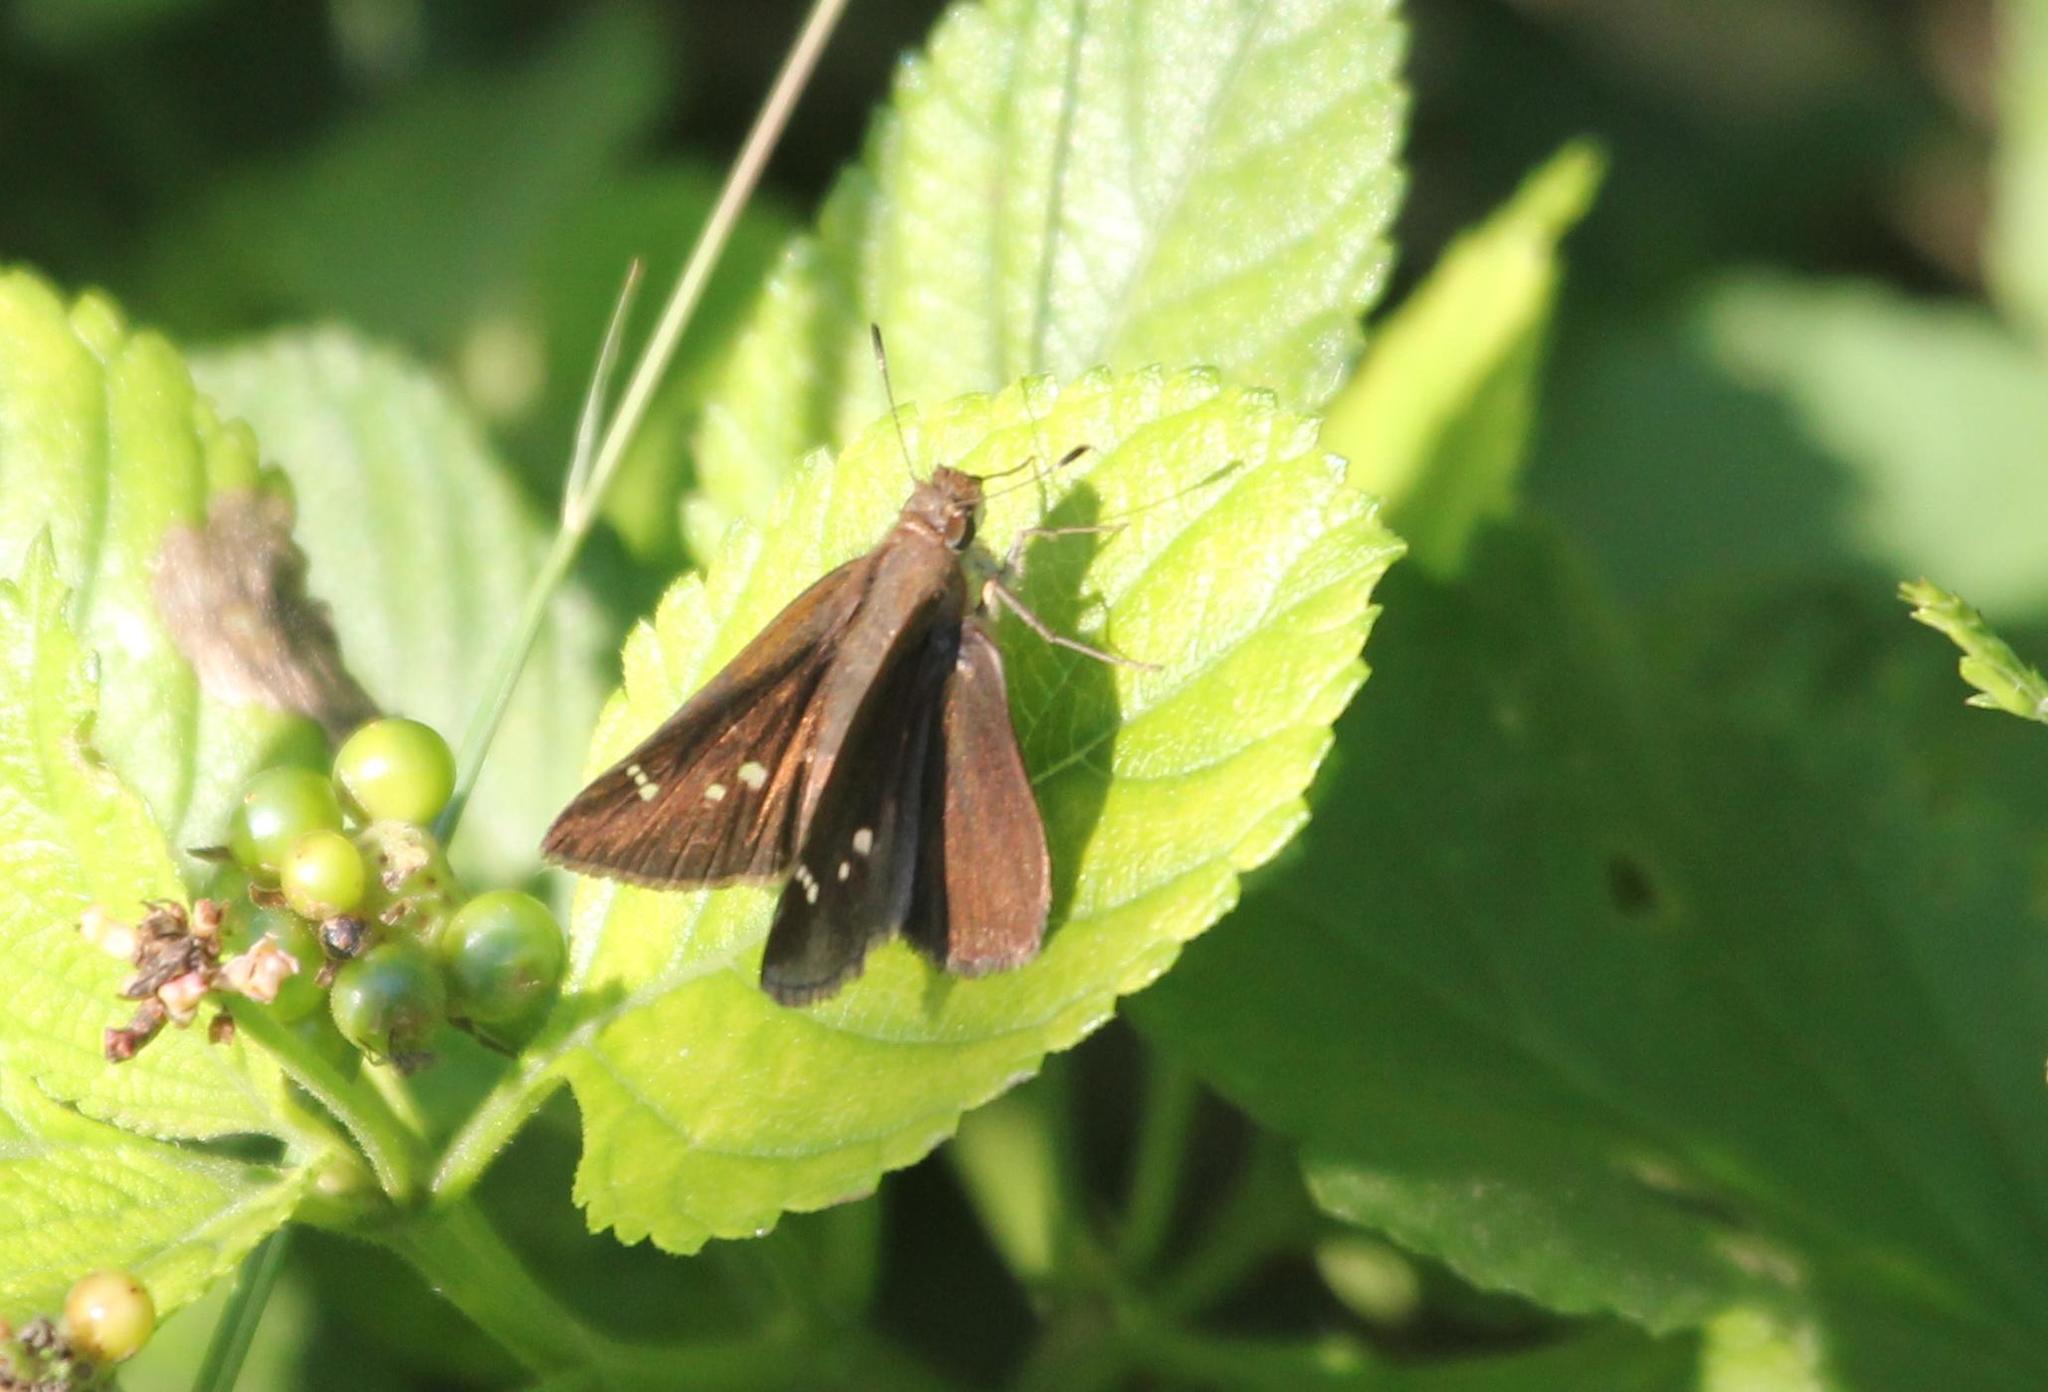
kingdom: Animalia
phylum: Arthropoda
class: Insecta
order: Lepidoptera
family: Hesperiidae
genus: Lerema
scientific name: Lerema accius
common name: Clouded skipper
